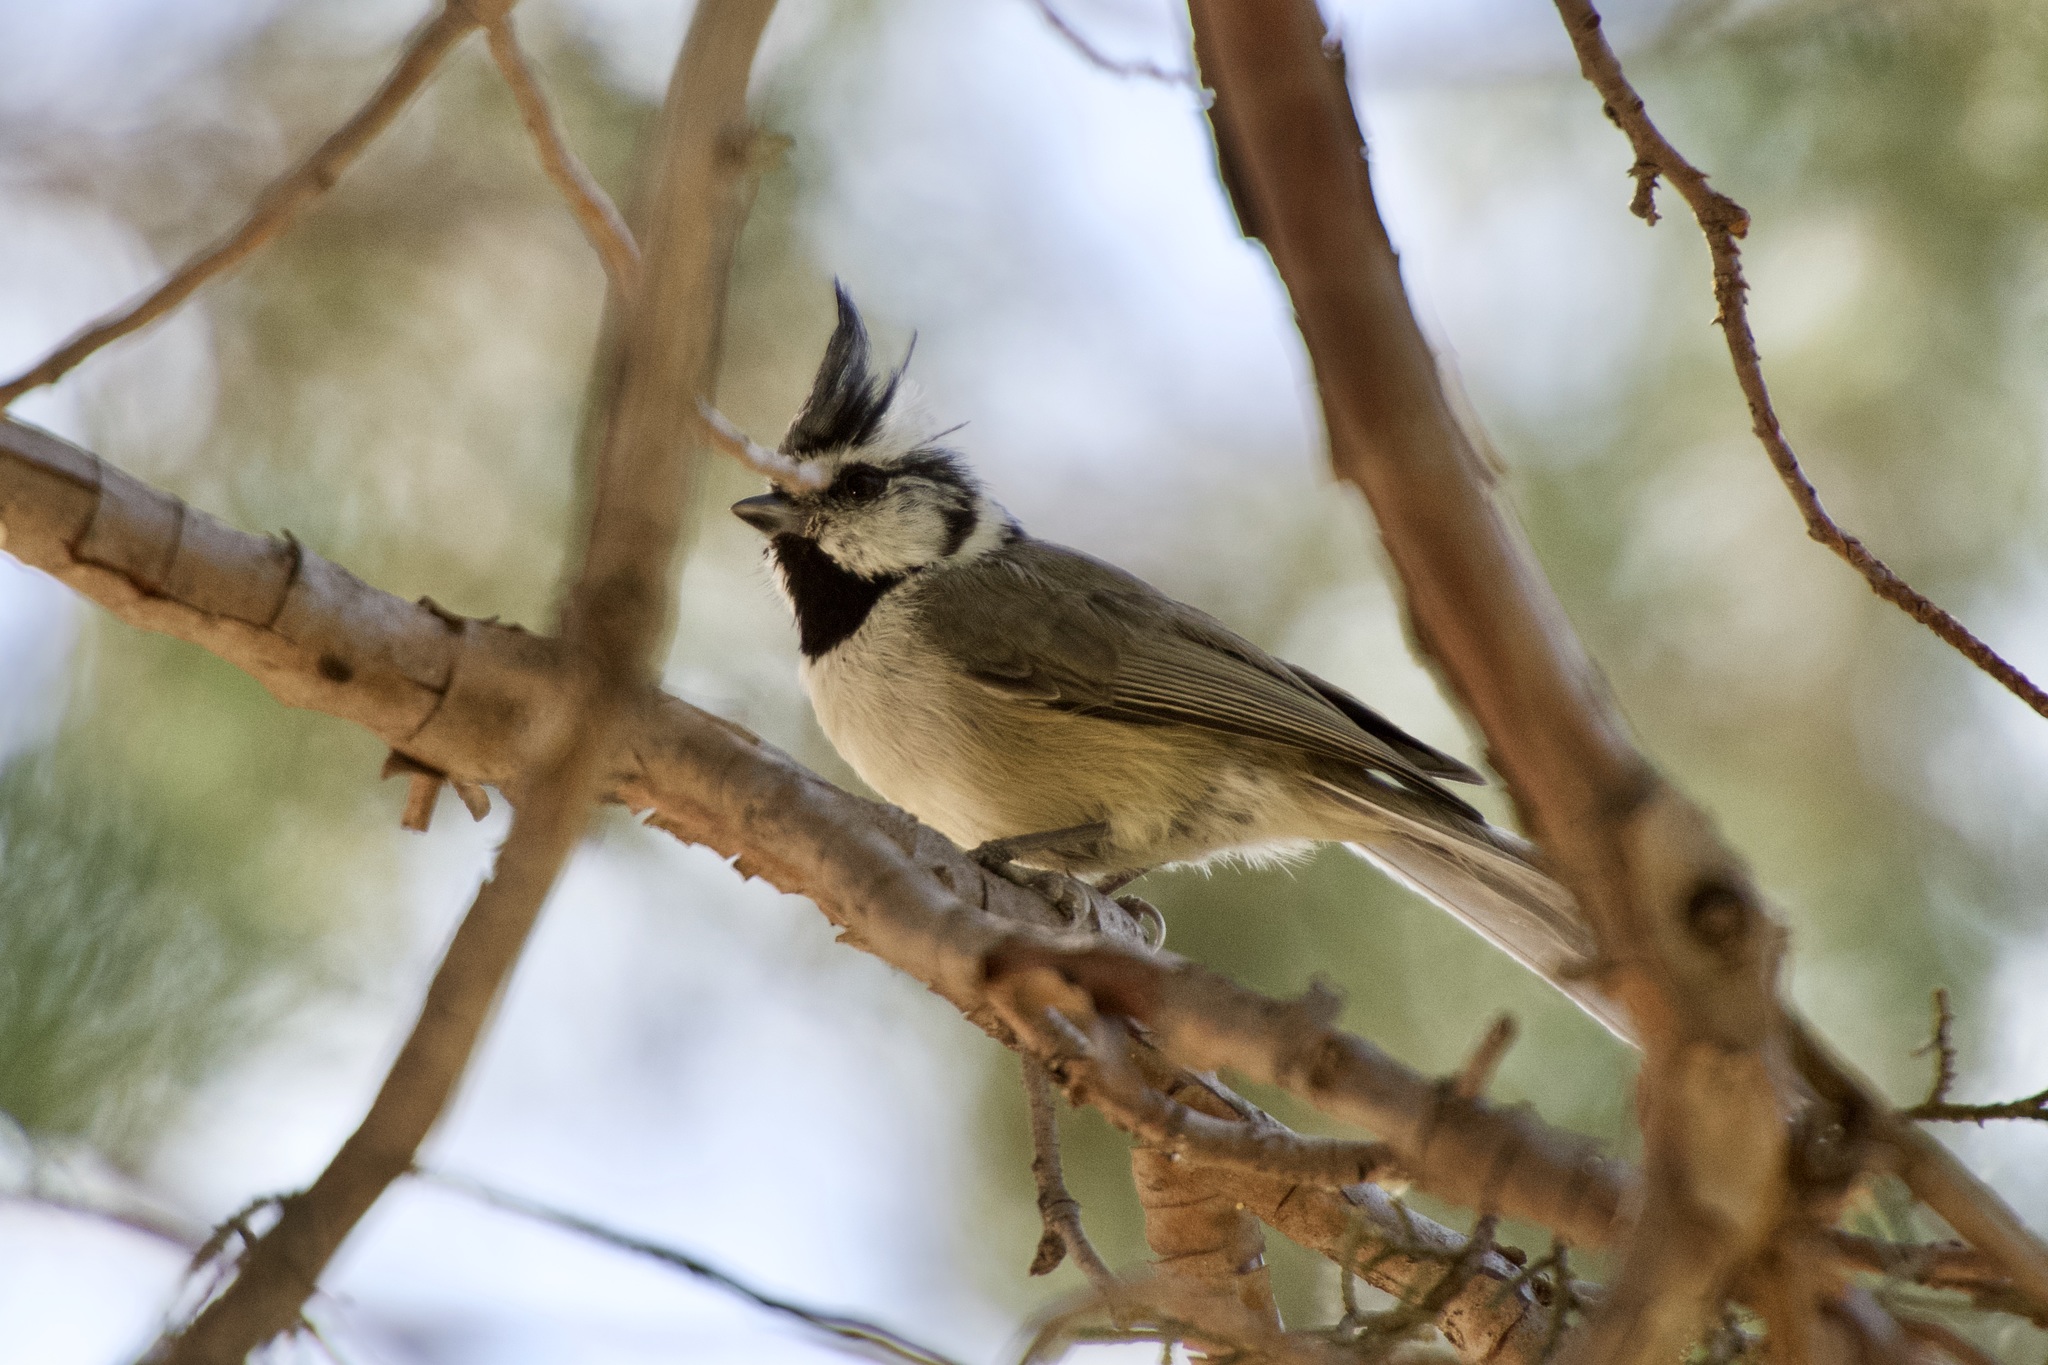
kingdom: Animalia
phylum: Chordata
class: Aves
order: Passeriformes
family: Paridae
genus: Baeolophus
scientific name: Baeolophus wollweberi
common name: Bridled titmouse
